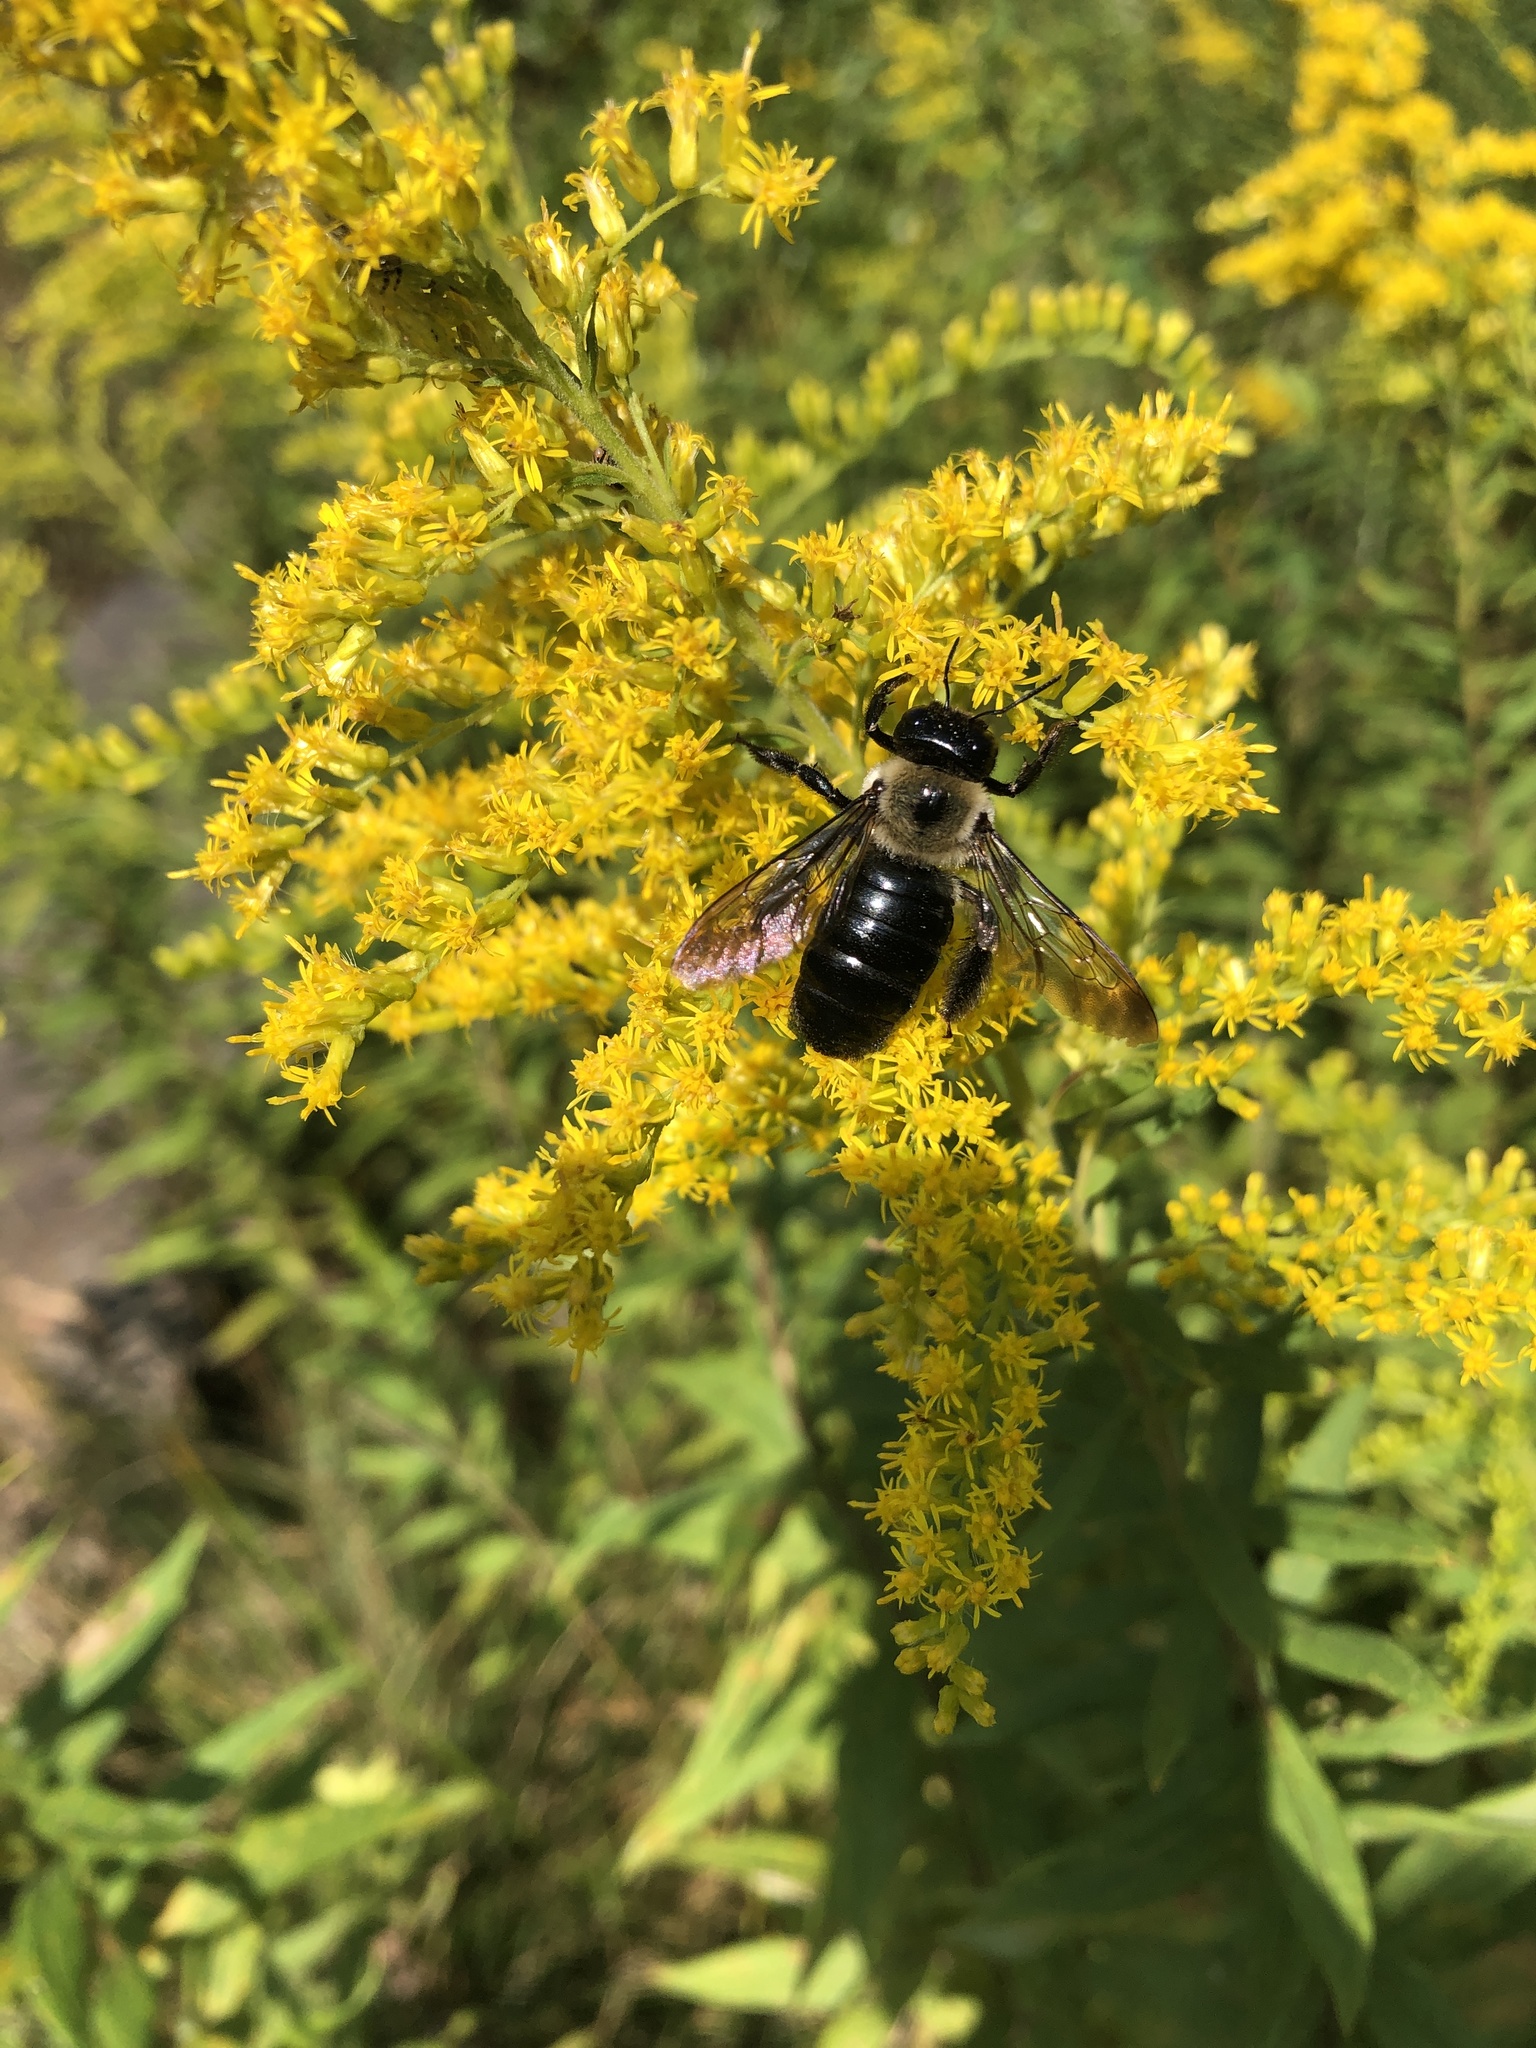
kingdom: Animalia
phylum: Arthropoda
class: Insecta
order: Hymenoptera
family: Apidae
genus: Xylocopa
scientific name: Xylocopa virginica
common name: Carpenter bee
